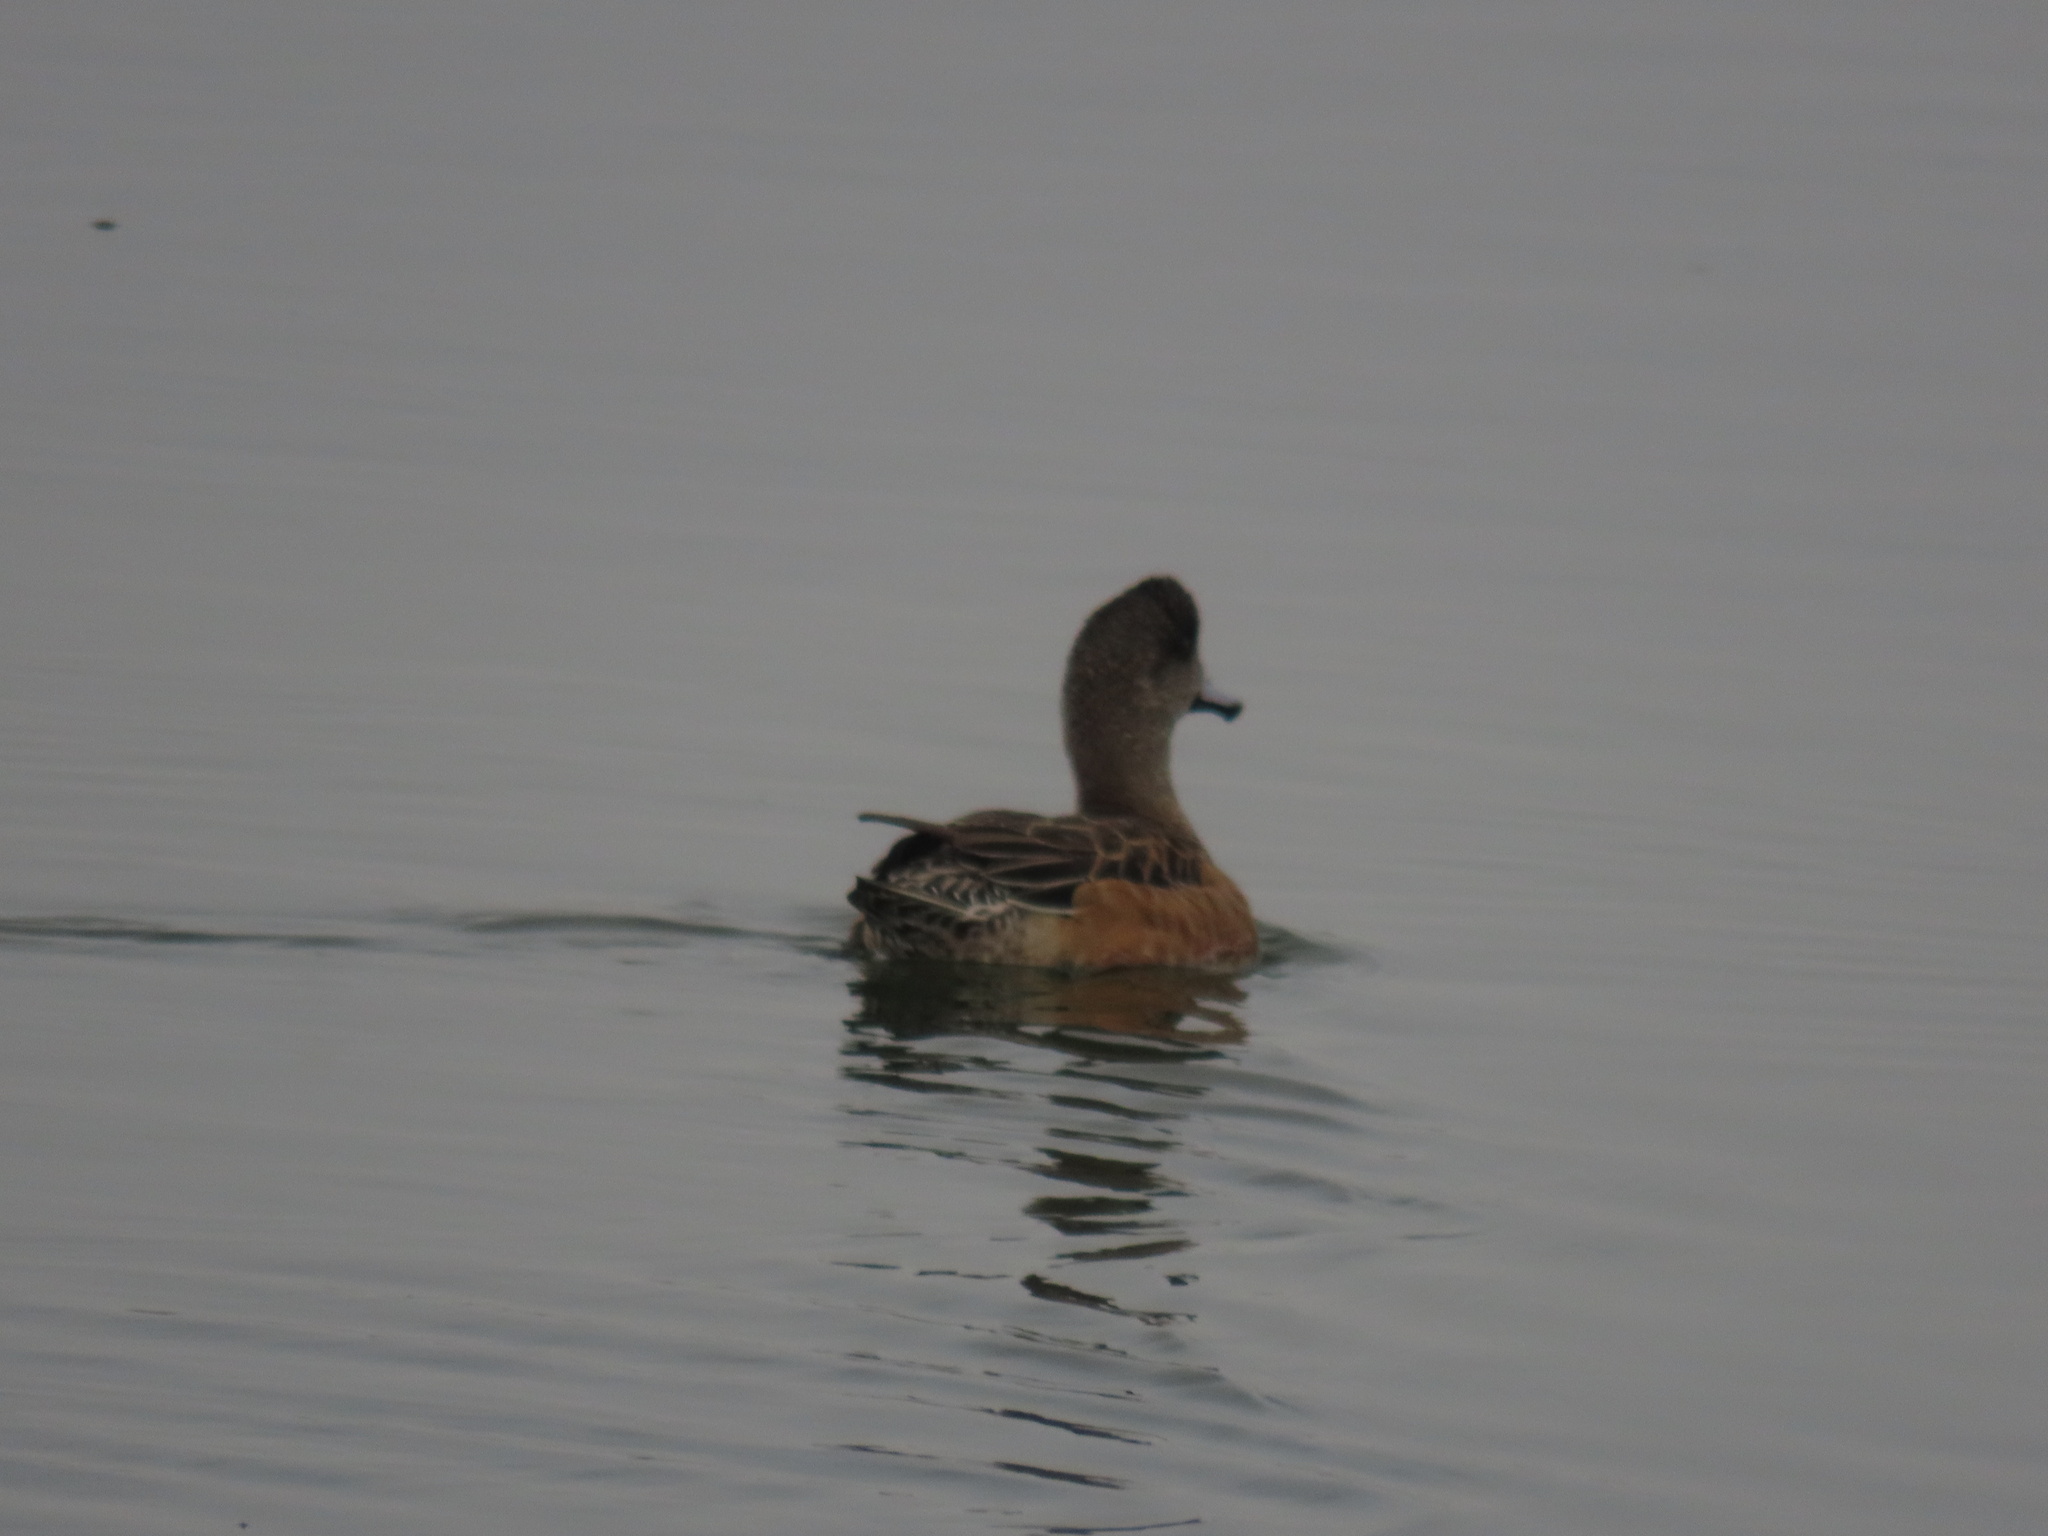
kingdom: Animalia
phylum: Chordata
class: Aves
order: Anseriformes
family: Anatidae
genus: Mareca
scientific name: Mareca americana
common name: American wigeon
